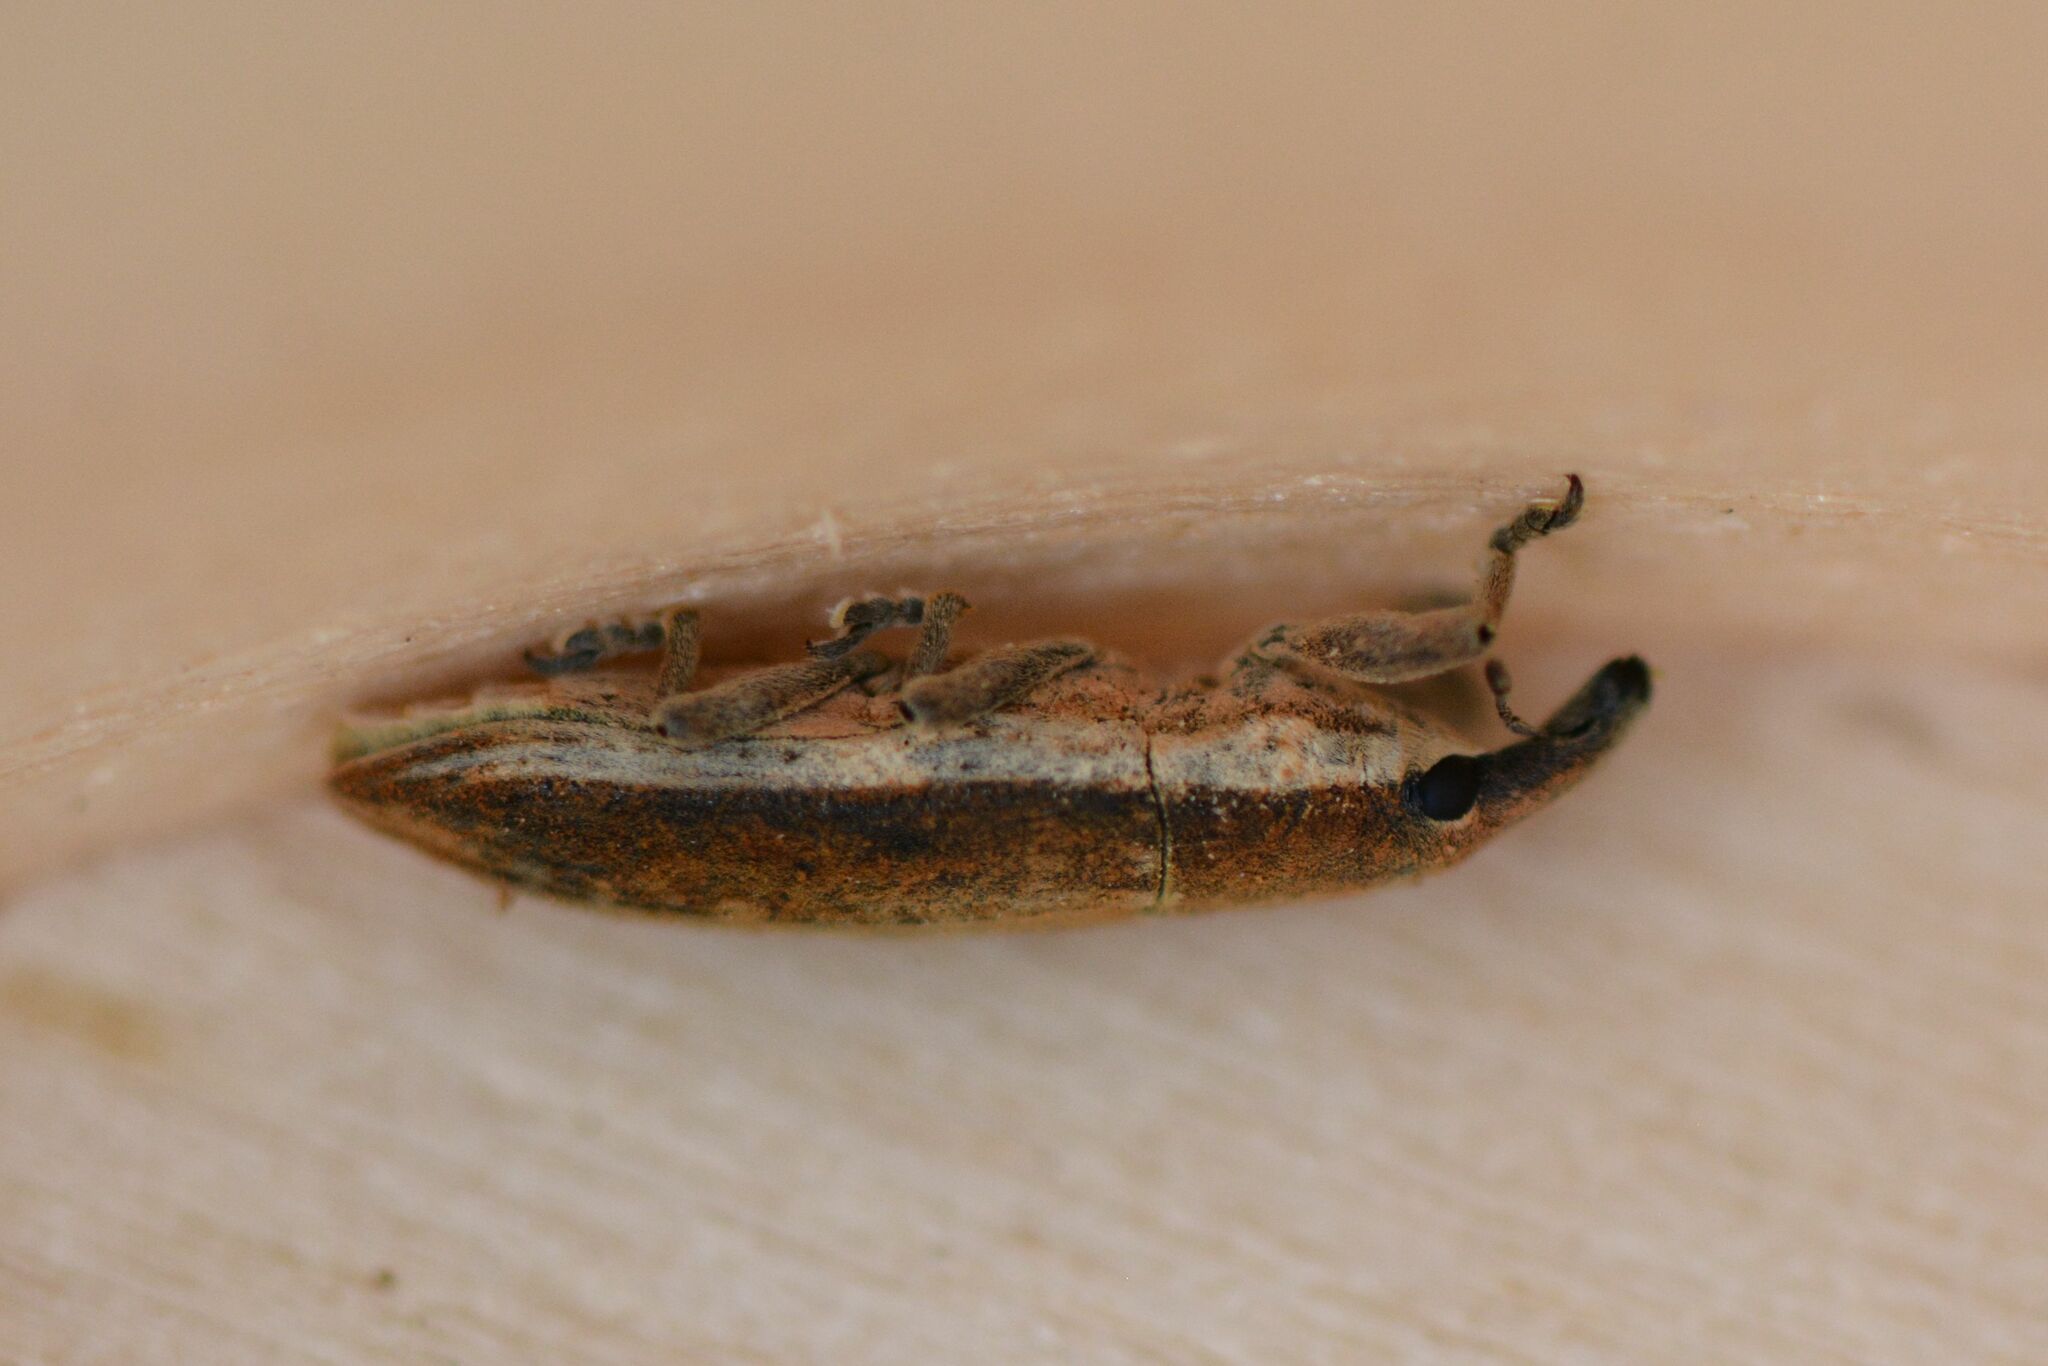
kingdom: Animalia
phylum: Arthropoda
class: Insecta
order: Coleoptera
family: Curculionidae
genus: Lixus
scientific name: Lixus juncii
